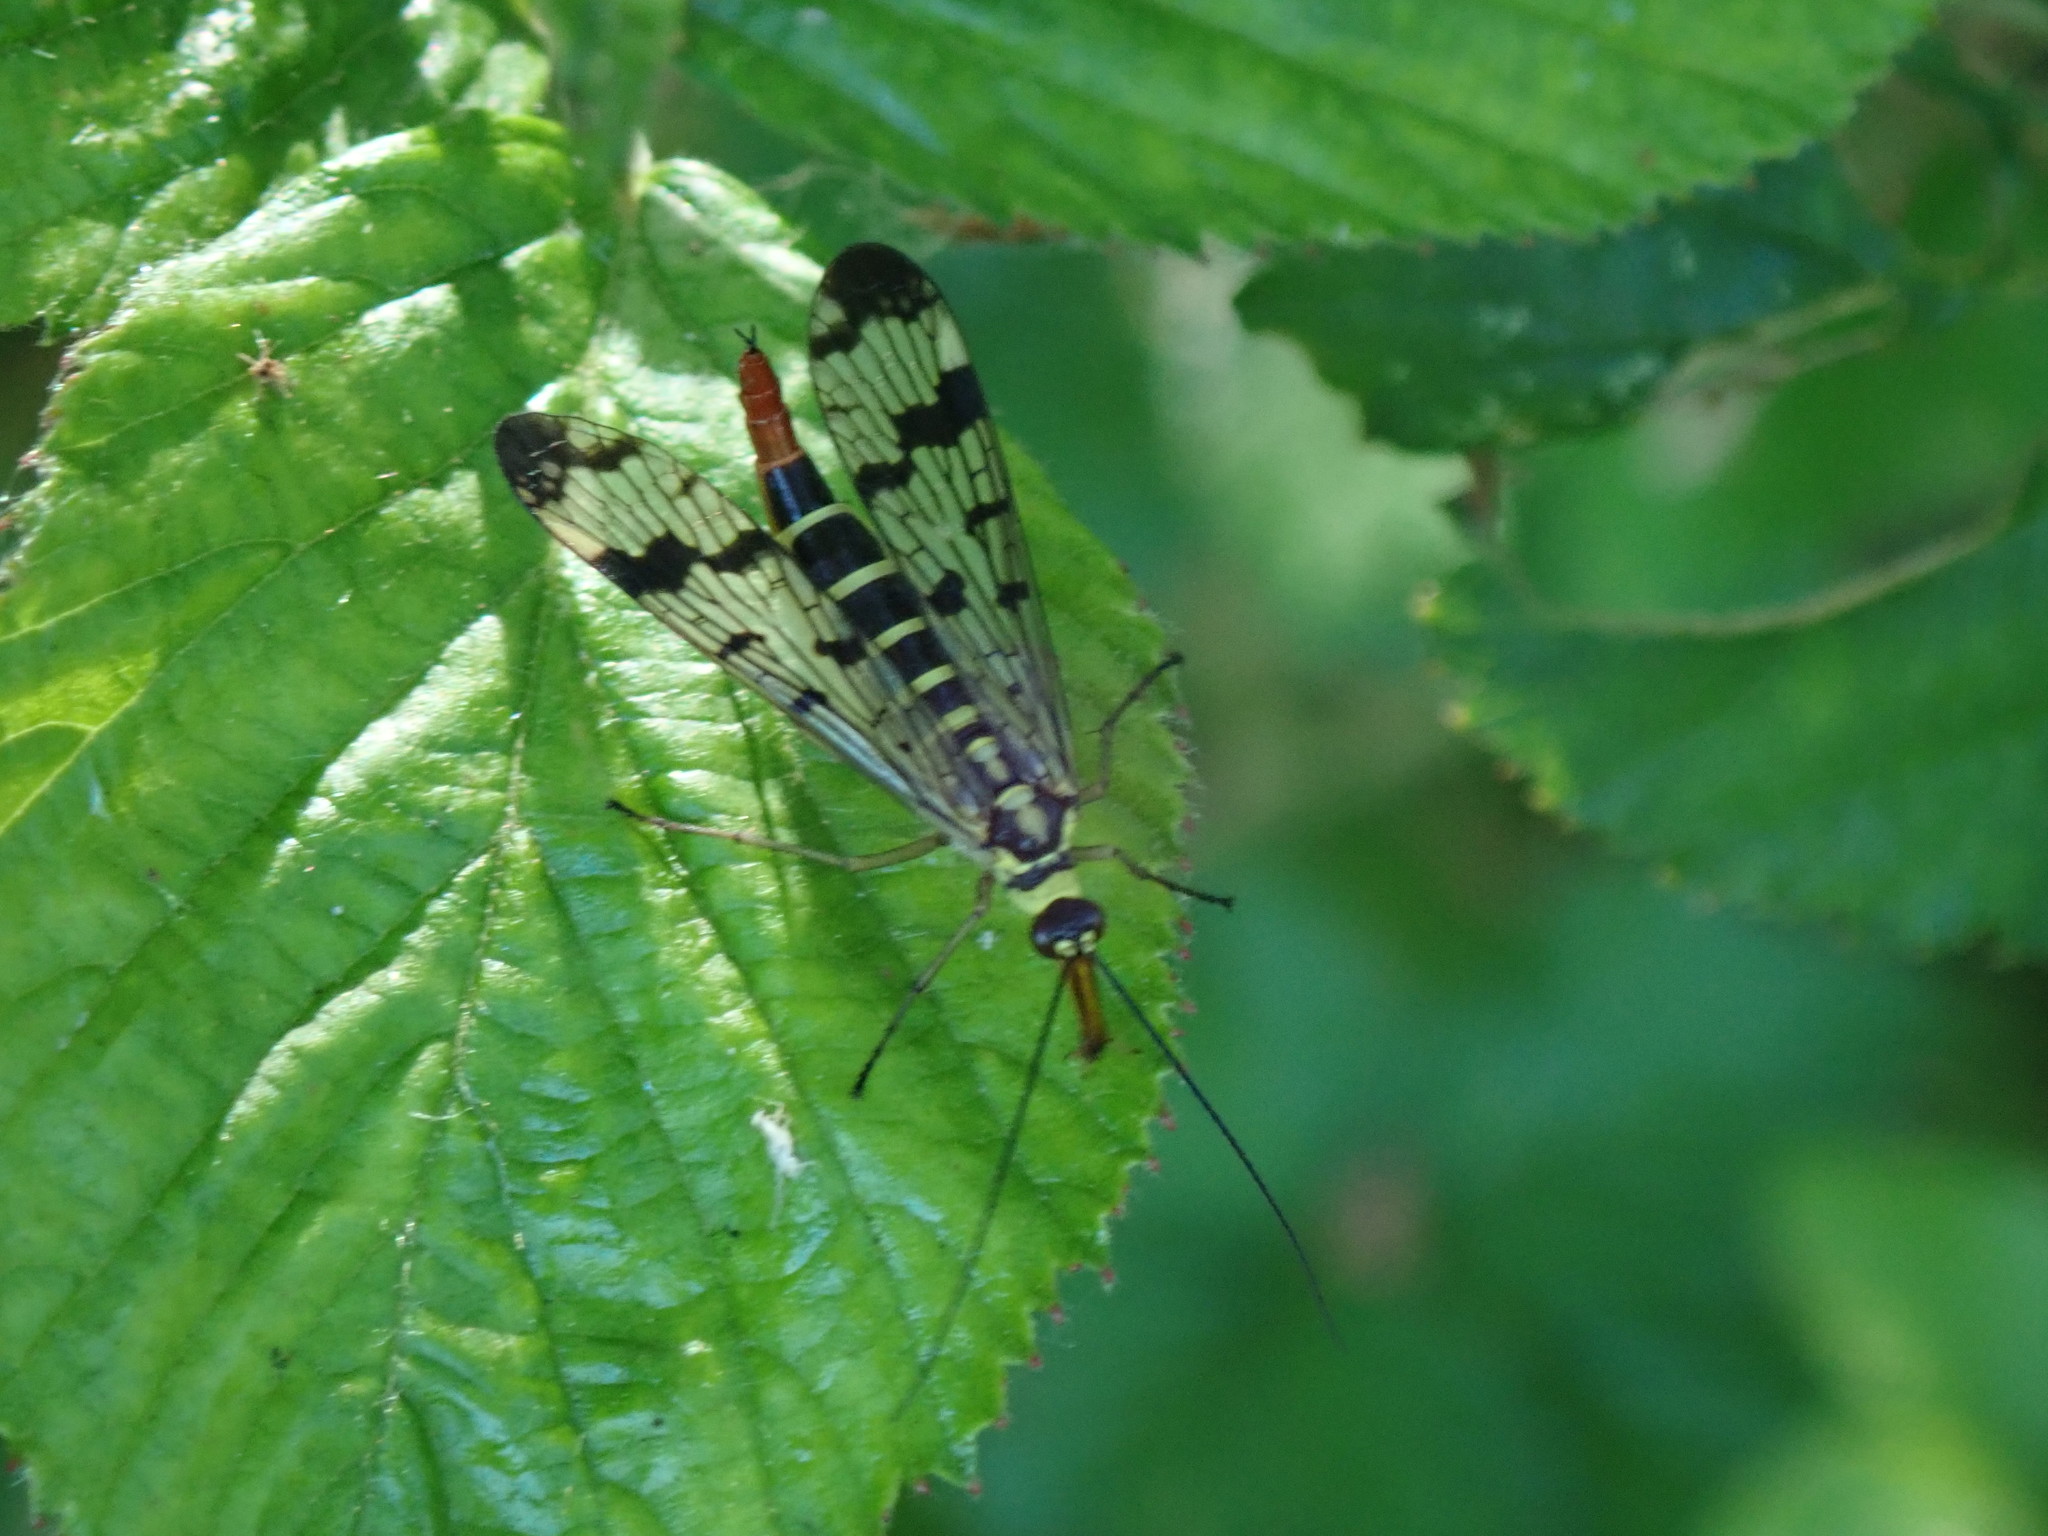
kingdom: Animalia
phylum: Arthropoda
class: Insecta
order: Mecoptera
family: Panorpidae
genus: Panorpa
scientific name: Panorpa communis
